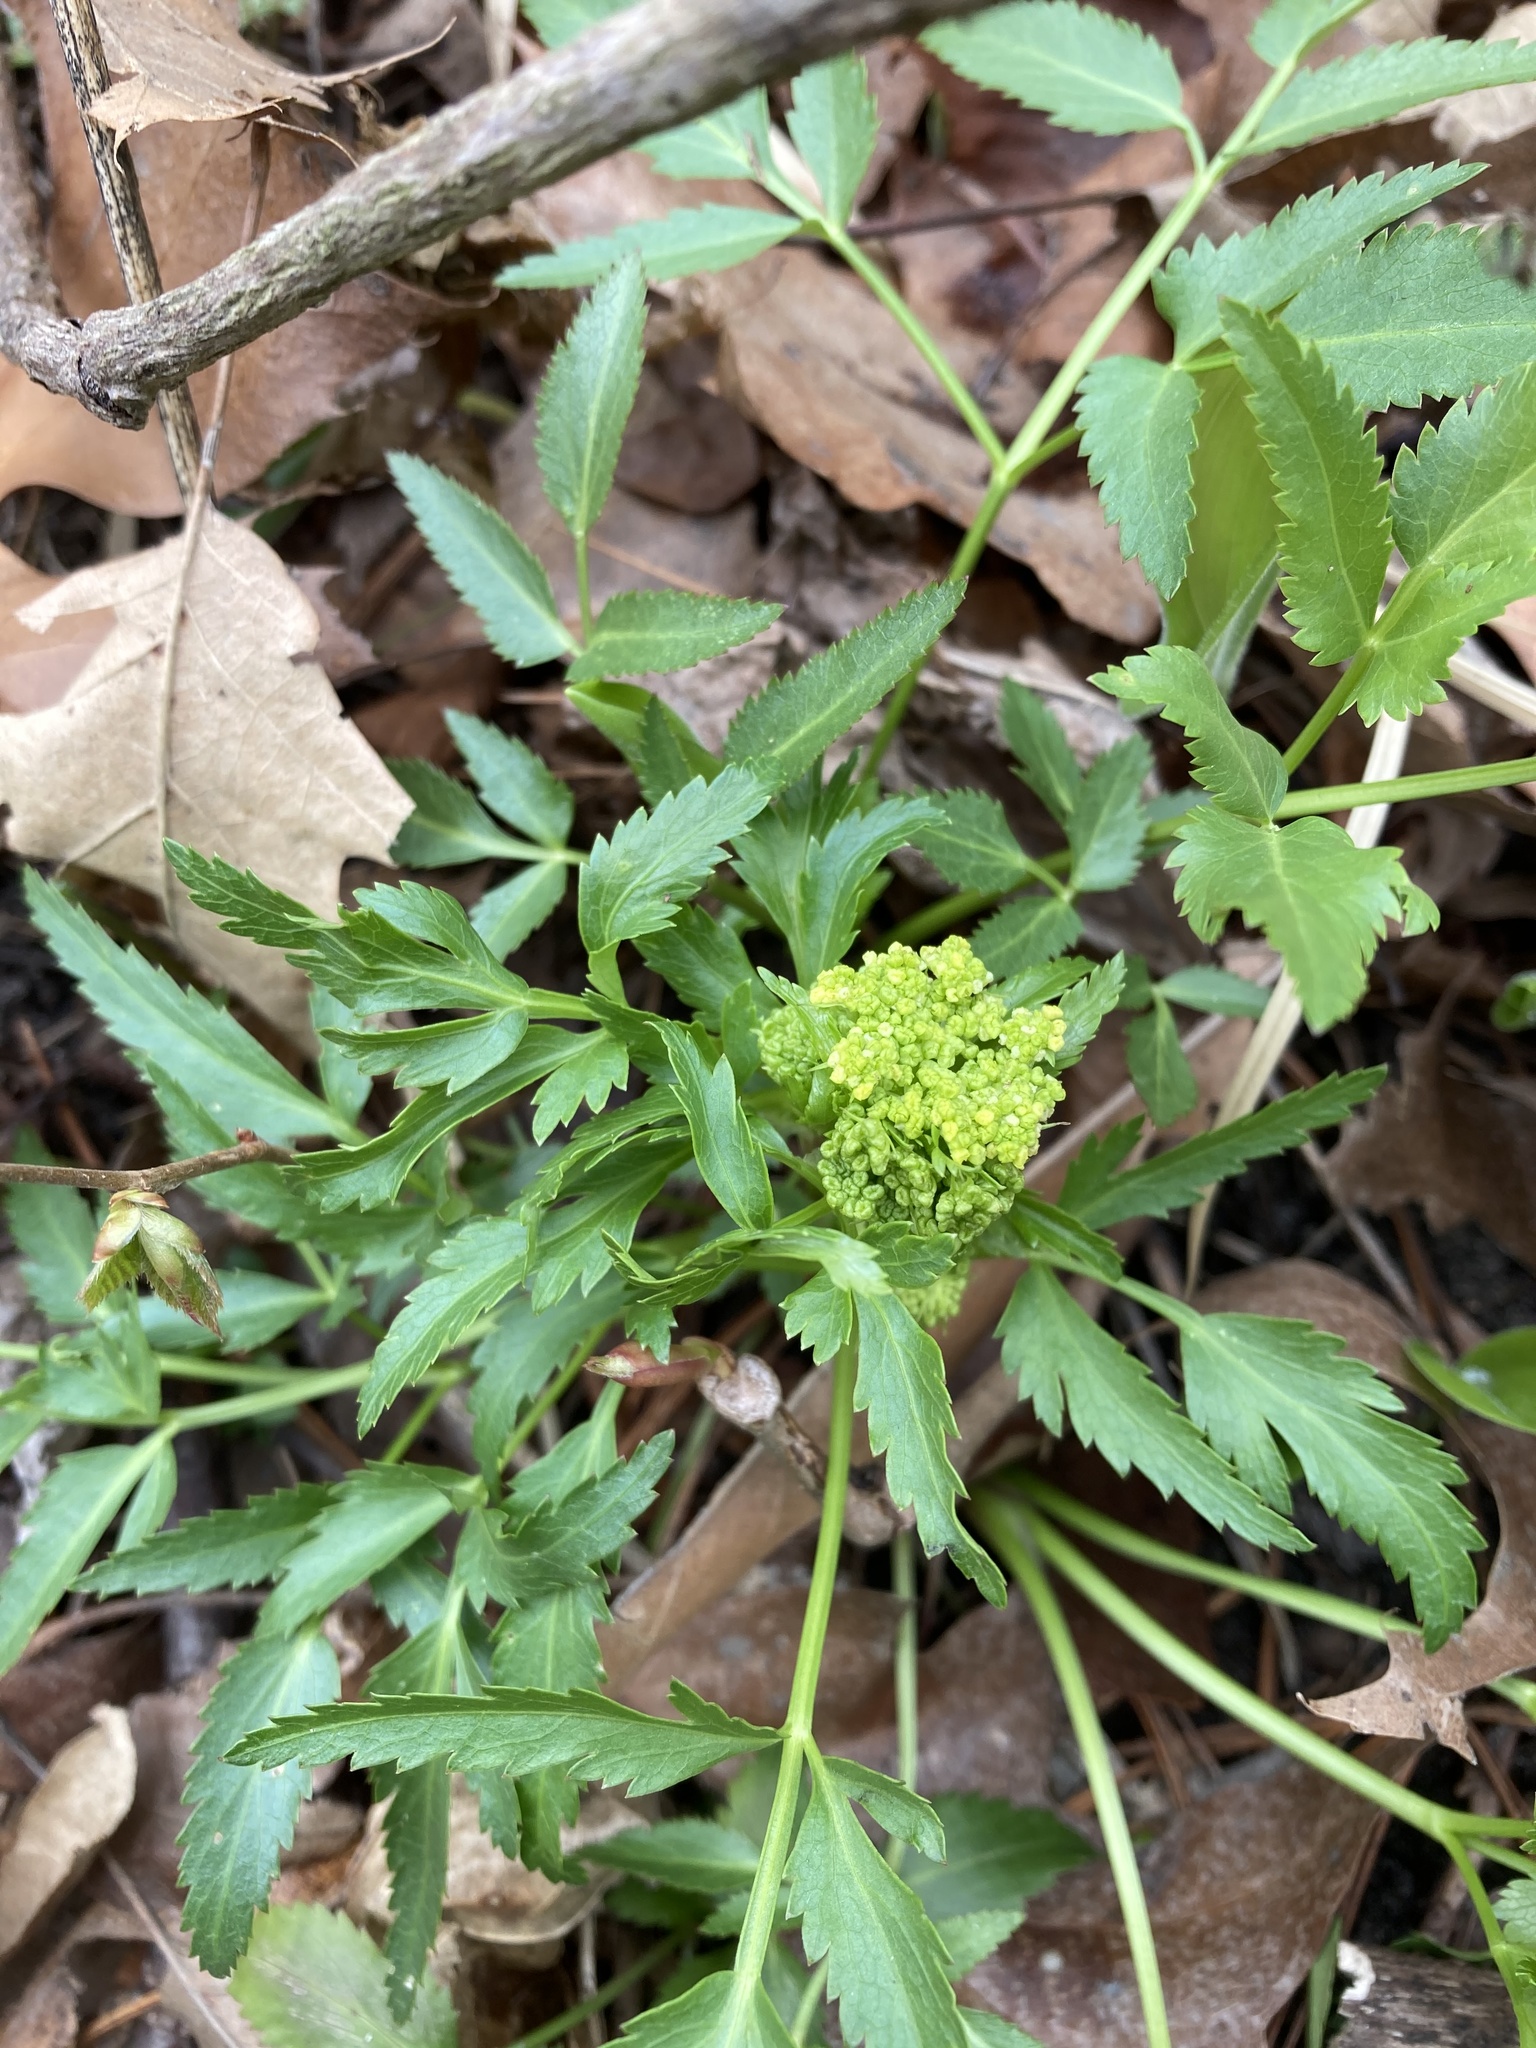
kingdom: Plantae
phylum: Tracheophyta
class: Magnoliopsida
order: Apiales
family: Apiaceae
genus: Zizia
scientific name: Zizia aurea
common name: Golden alexanders
